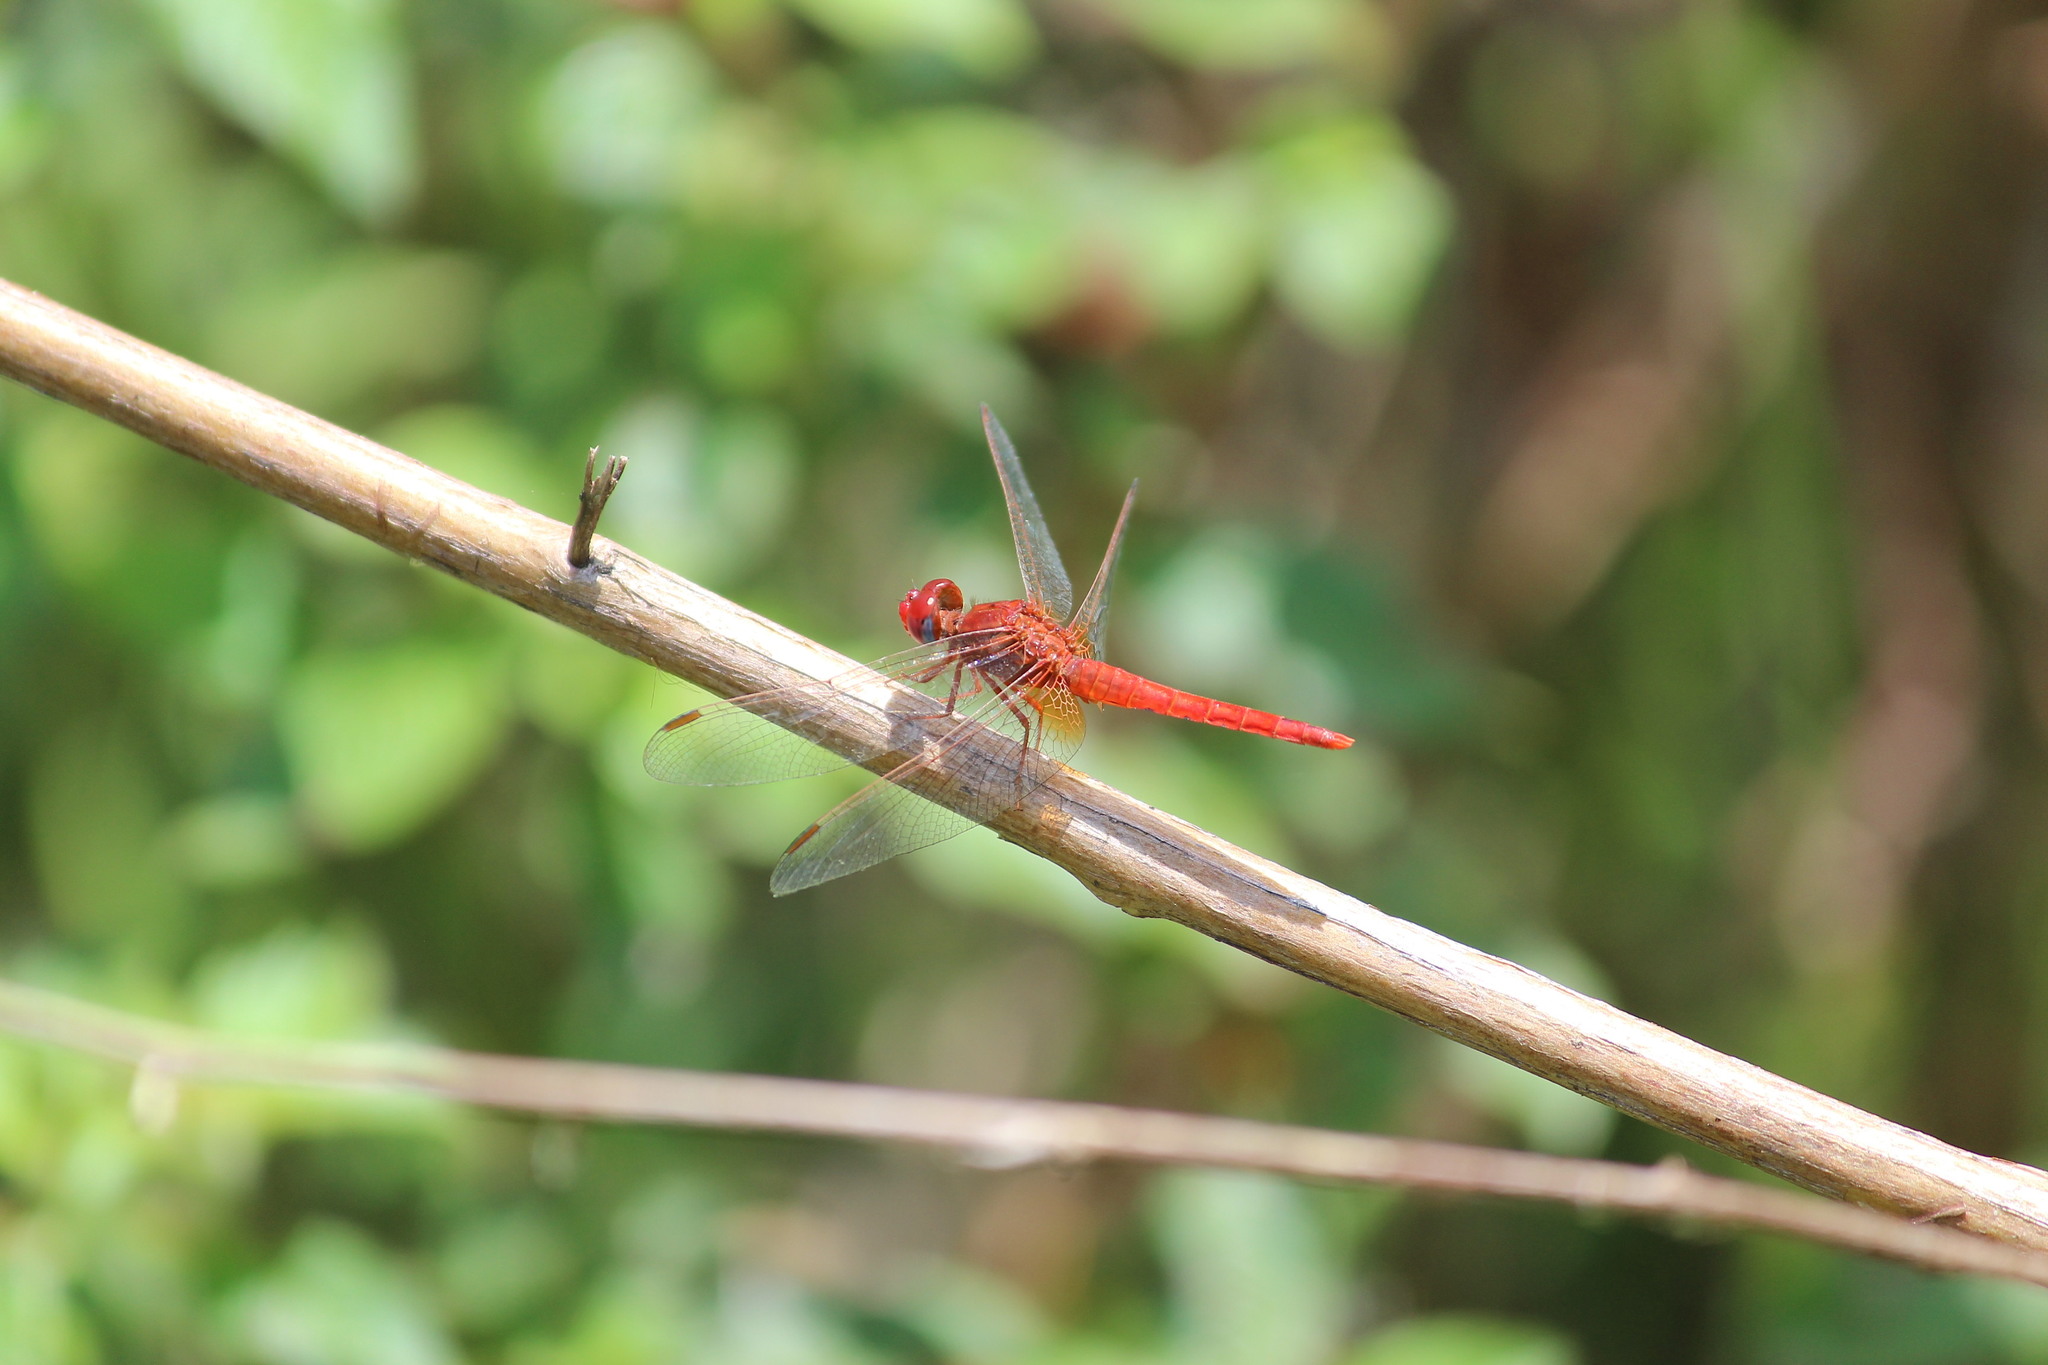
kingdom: Animalia
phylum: Arthropoda
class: Insecta
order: Odonata
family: Libellulidae
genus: Crocothemis
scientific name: Crocothemis sanguinolenta
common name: Little scarlet
